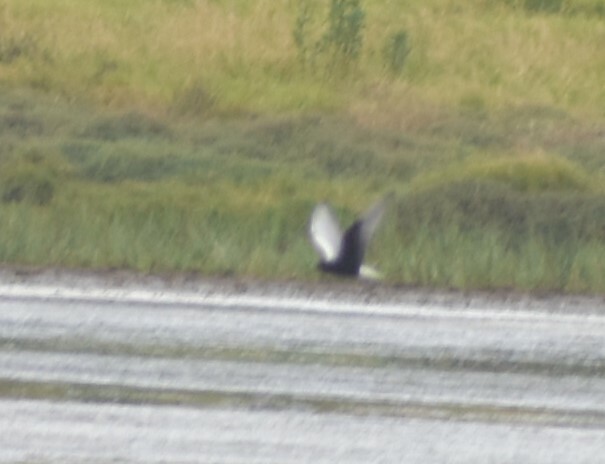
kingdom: Animalia
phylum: Chordata
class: Aves
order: Charadriiformes
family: Laridae
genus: Chlidonias
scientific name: Chlidonias leucopterus
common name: White-winged tern
